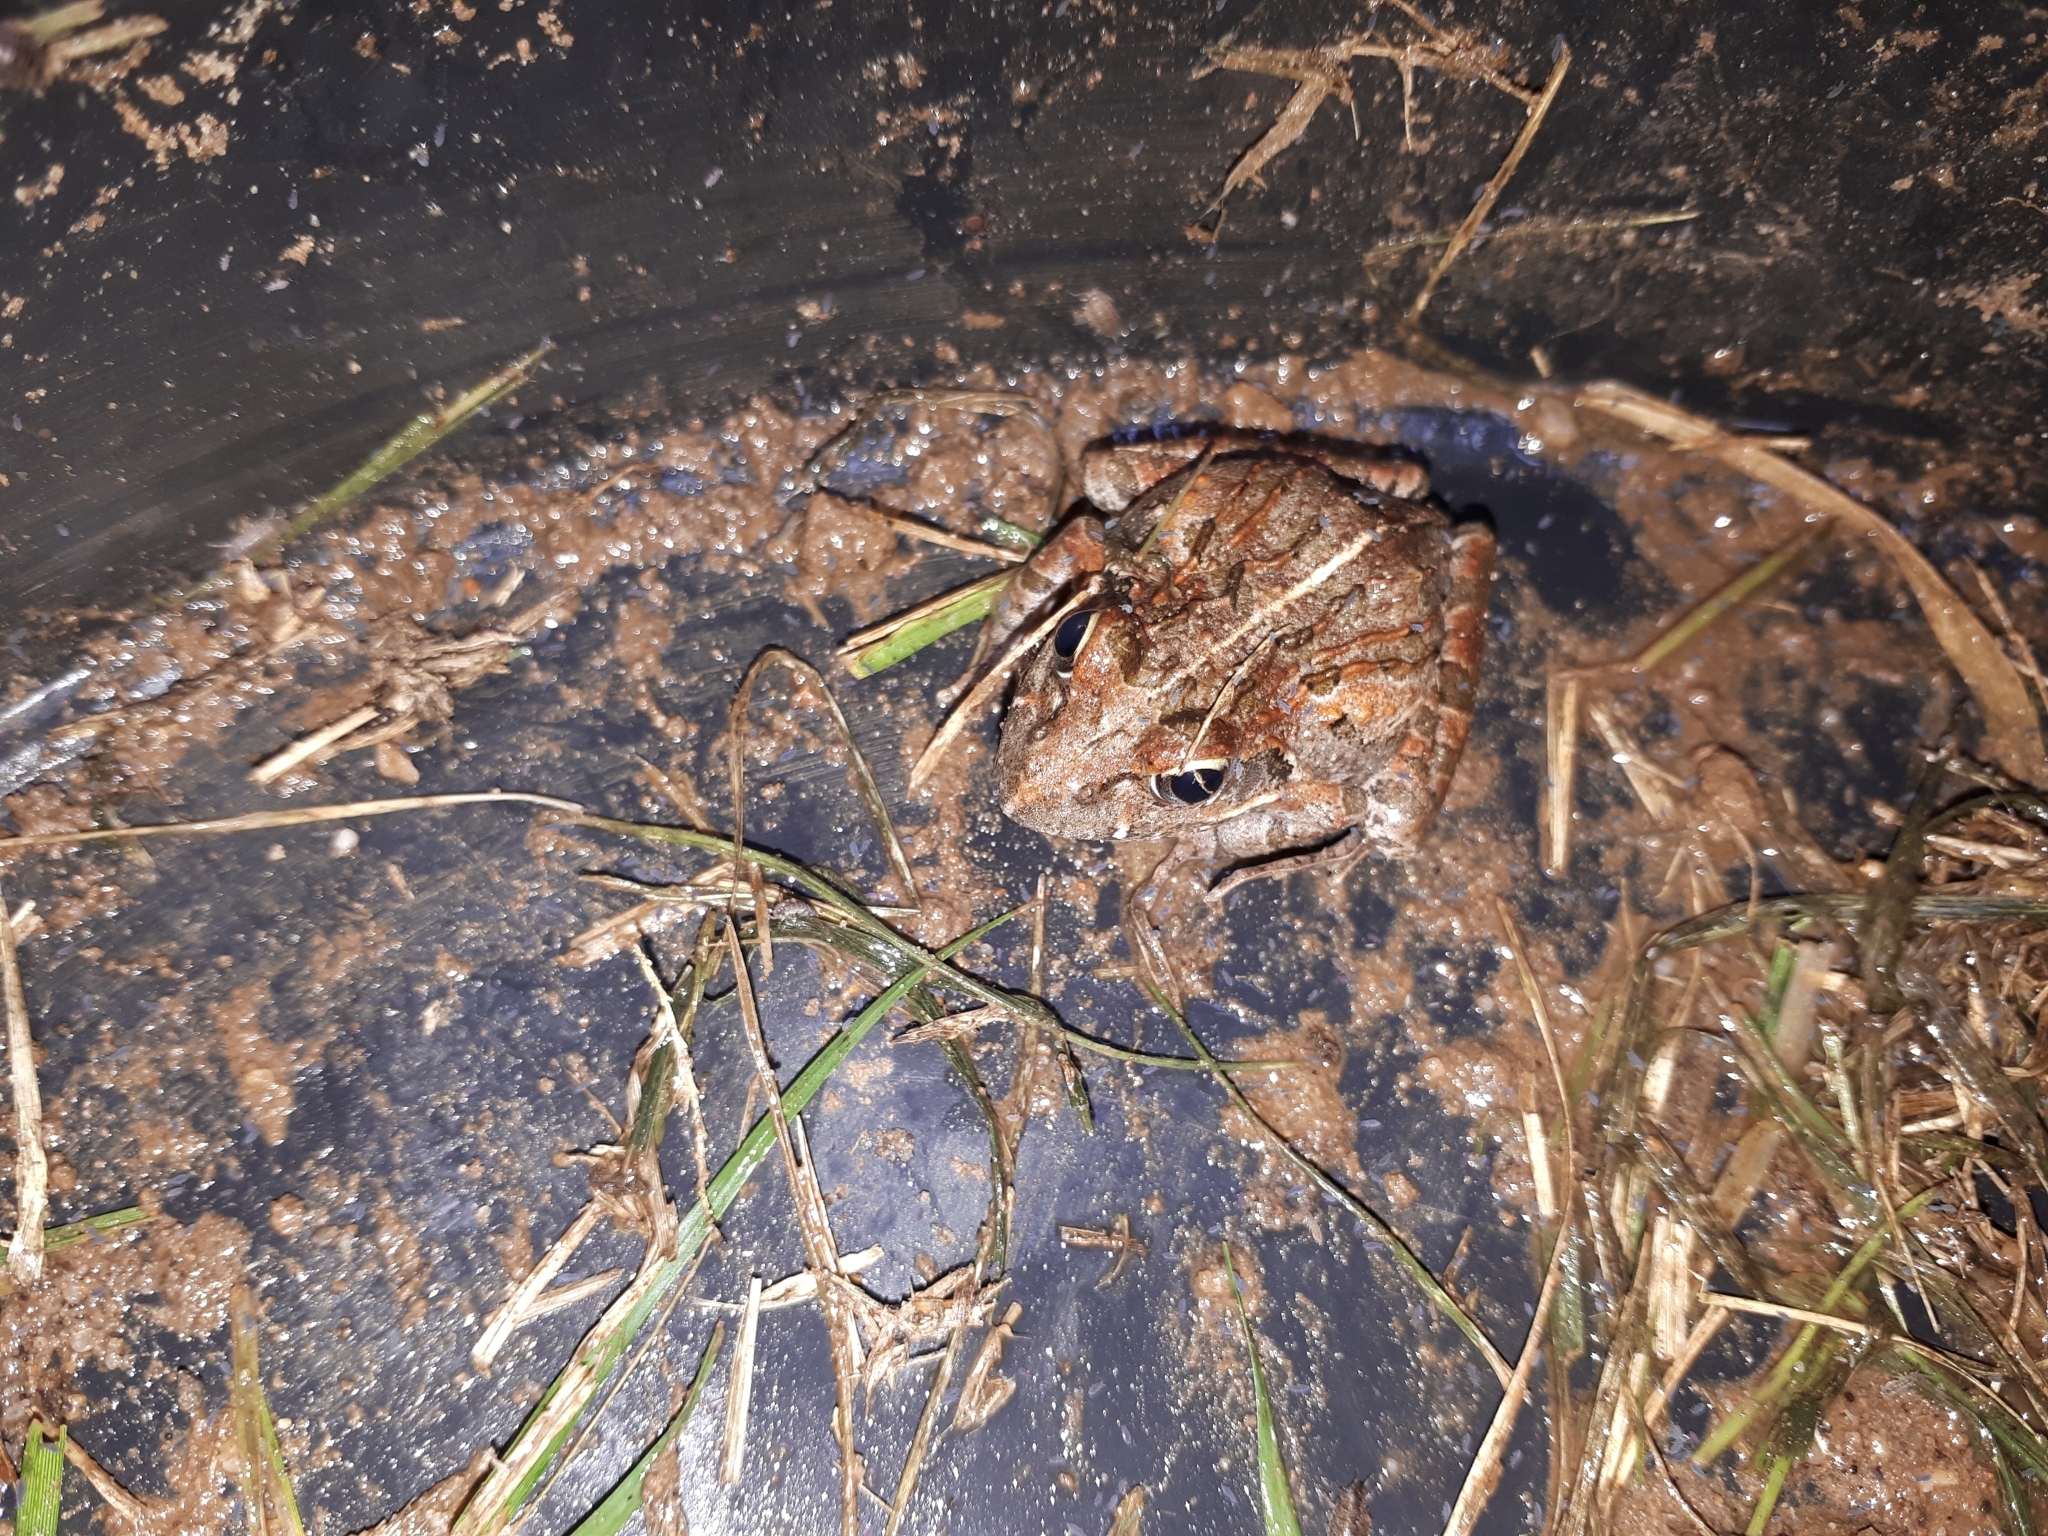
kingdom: Animalia
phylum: Chordata
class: Amphibia
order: Anura
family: Pyxicephalidae
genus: Strongylopus
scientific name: Strongylopus grayii
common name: Gray's stream frog
